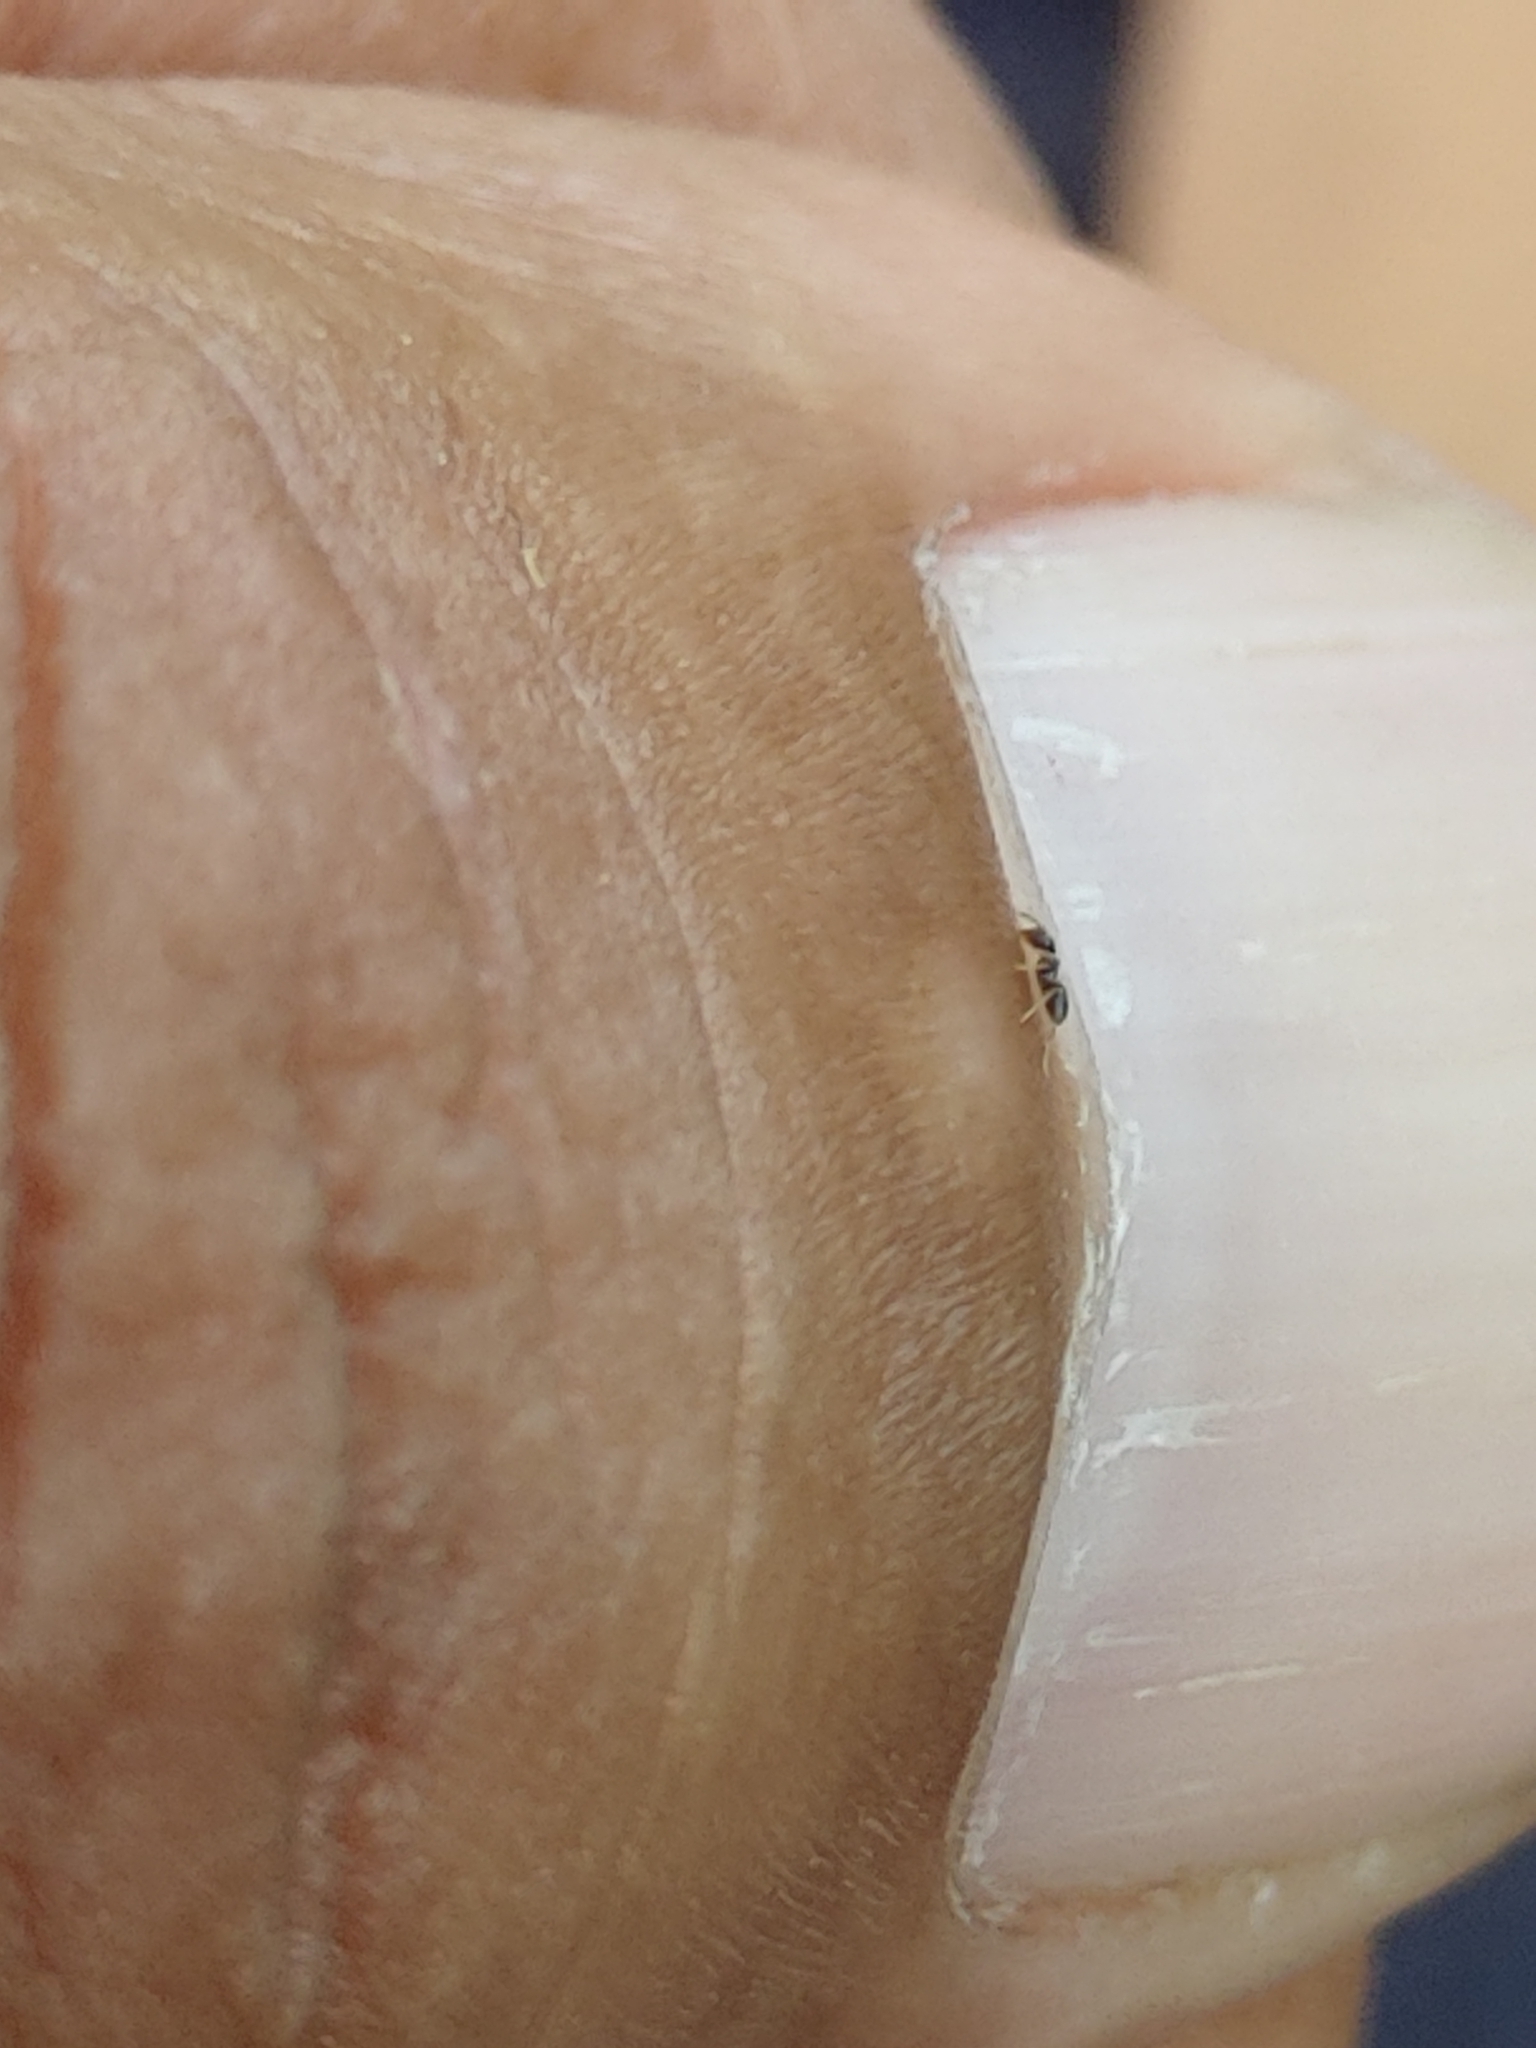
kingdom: Animalia
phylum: Arthropoda
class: Insecta
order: Hymenoptera
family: Formicidae
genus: Brachymyrmex
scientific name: Brachymyrmex patagonicus
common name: Dark rover ant
